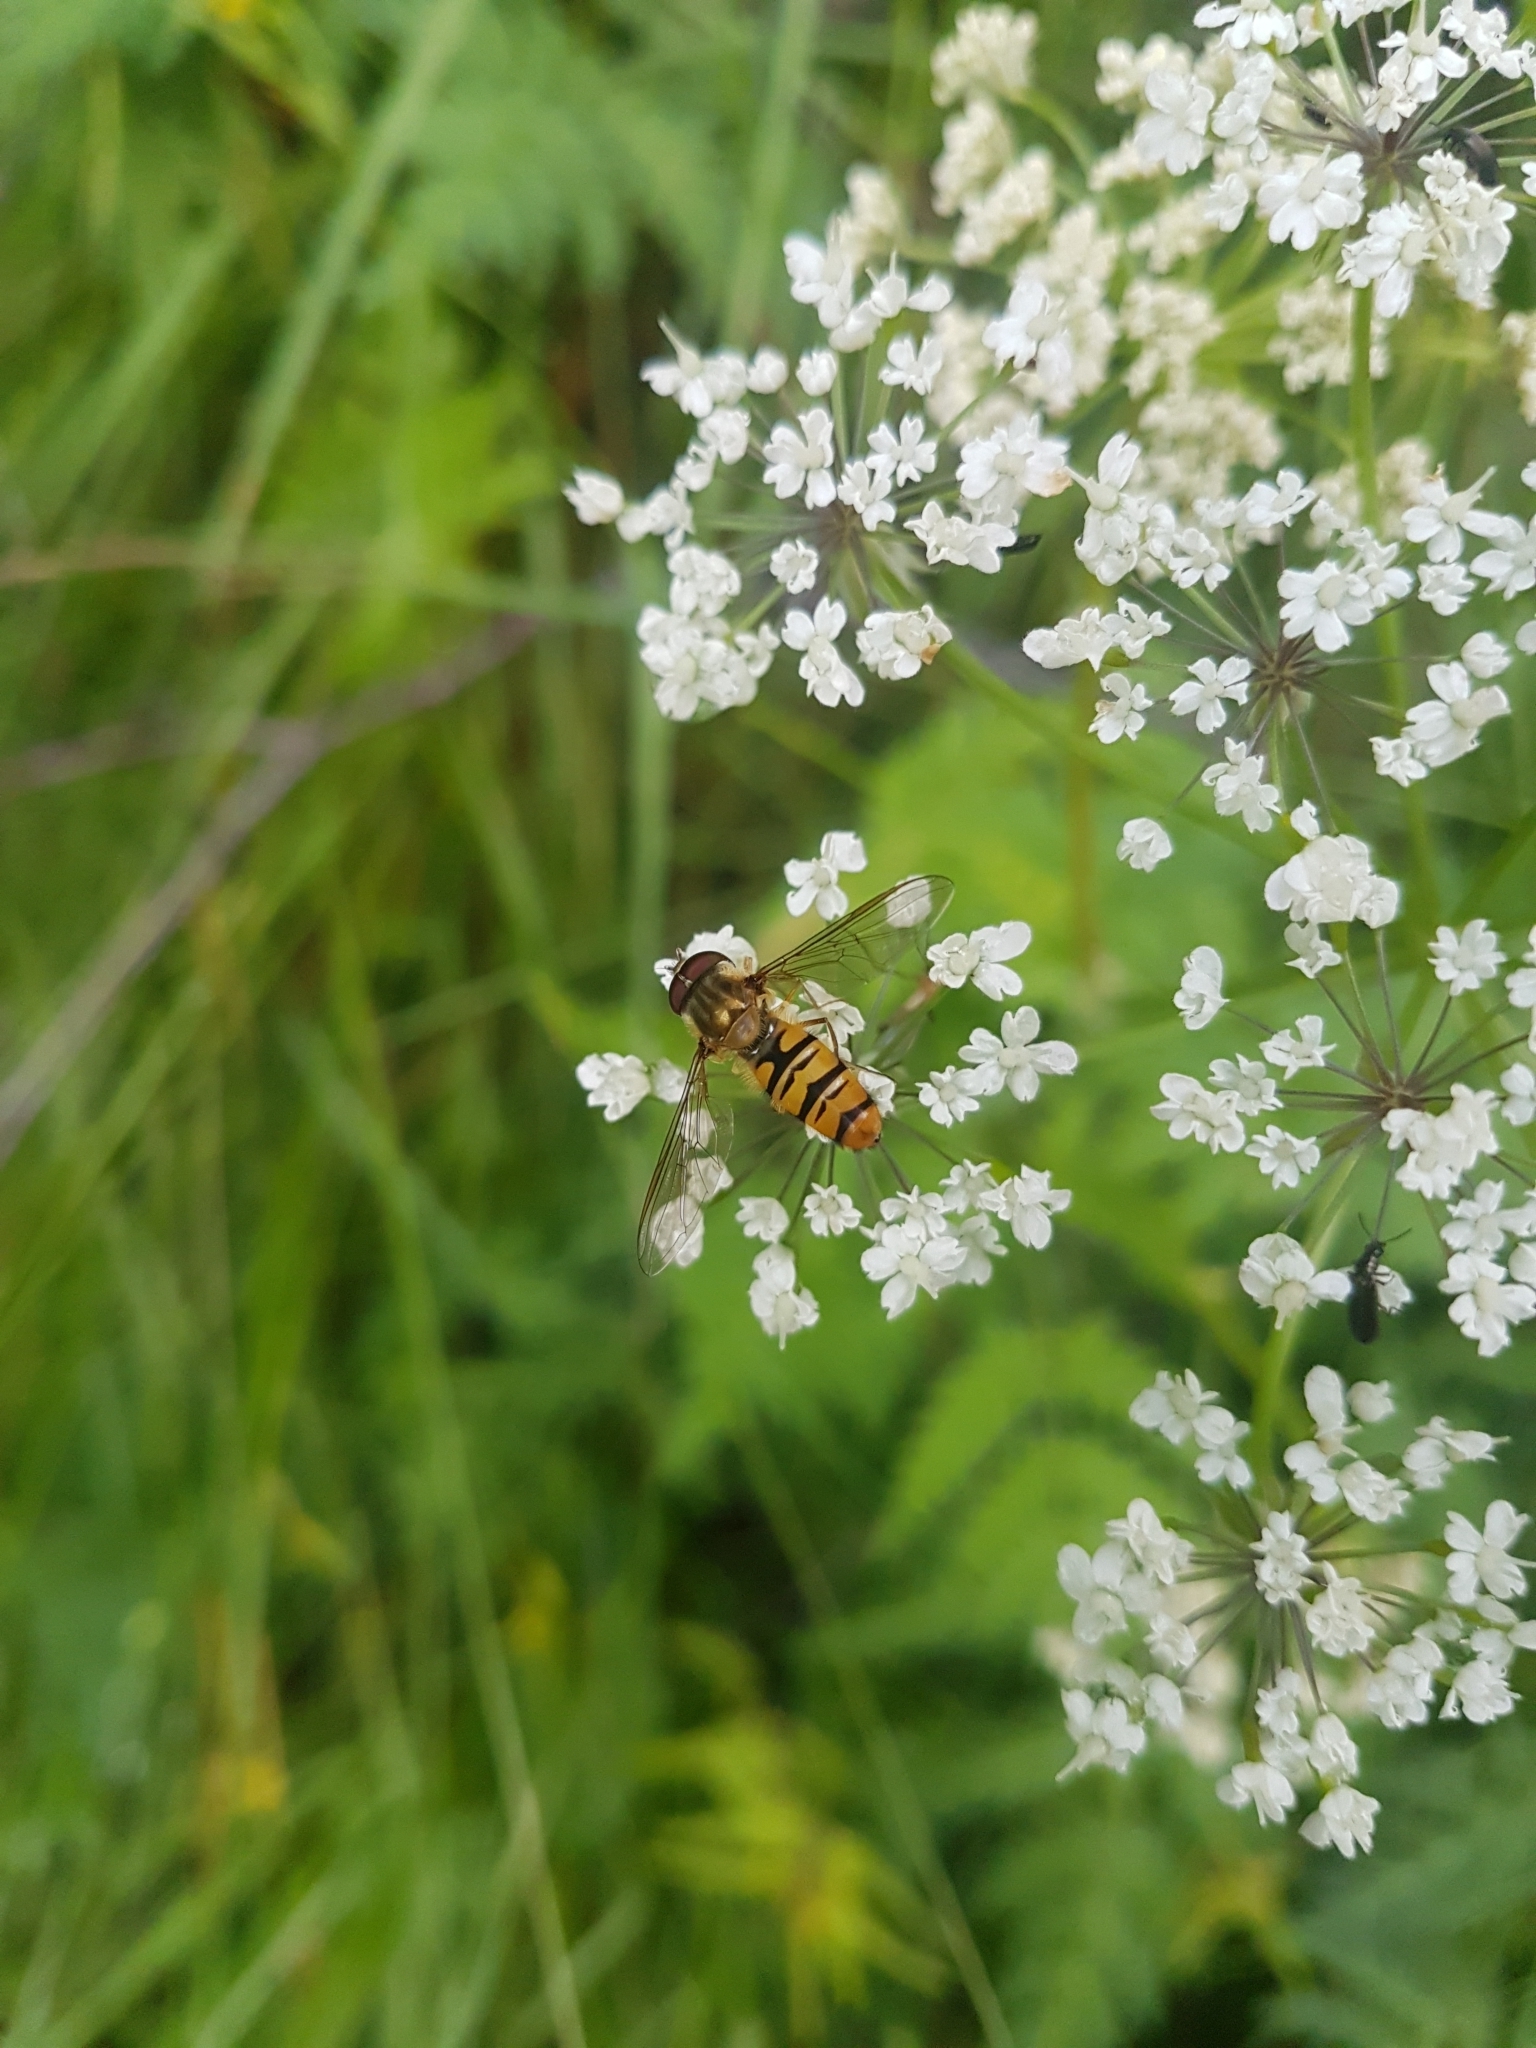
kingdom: Animalia
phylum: Arthropoda
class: Insecta
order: Diptera
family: Syrphidae
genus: Episyrphus
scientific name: Episyrphus balteatus
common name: Marmalade hoverfly
